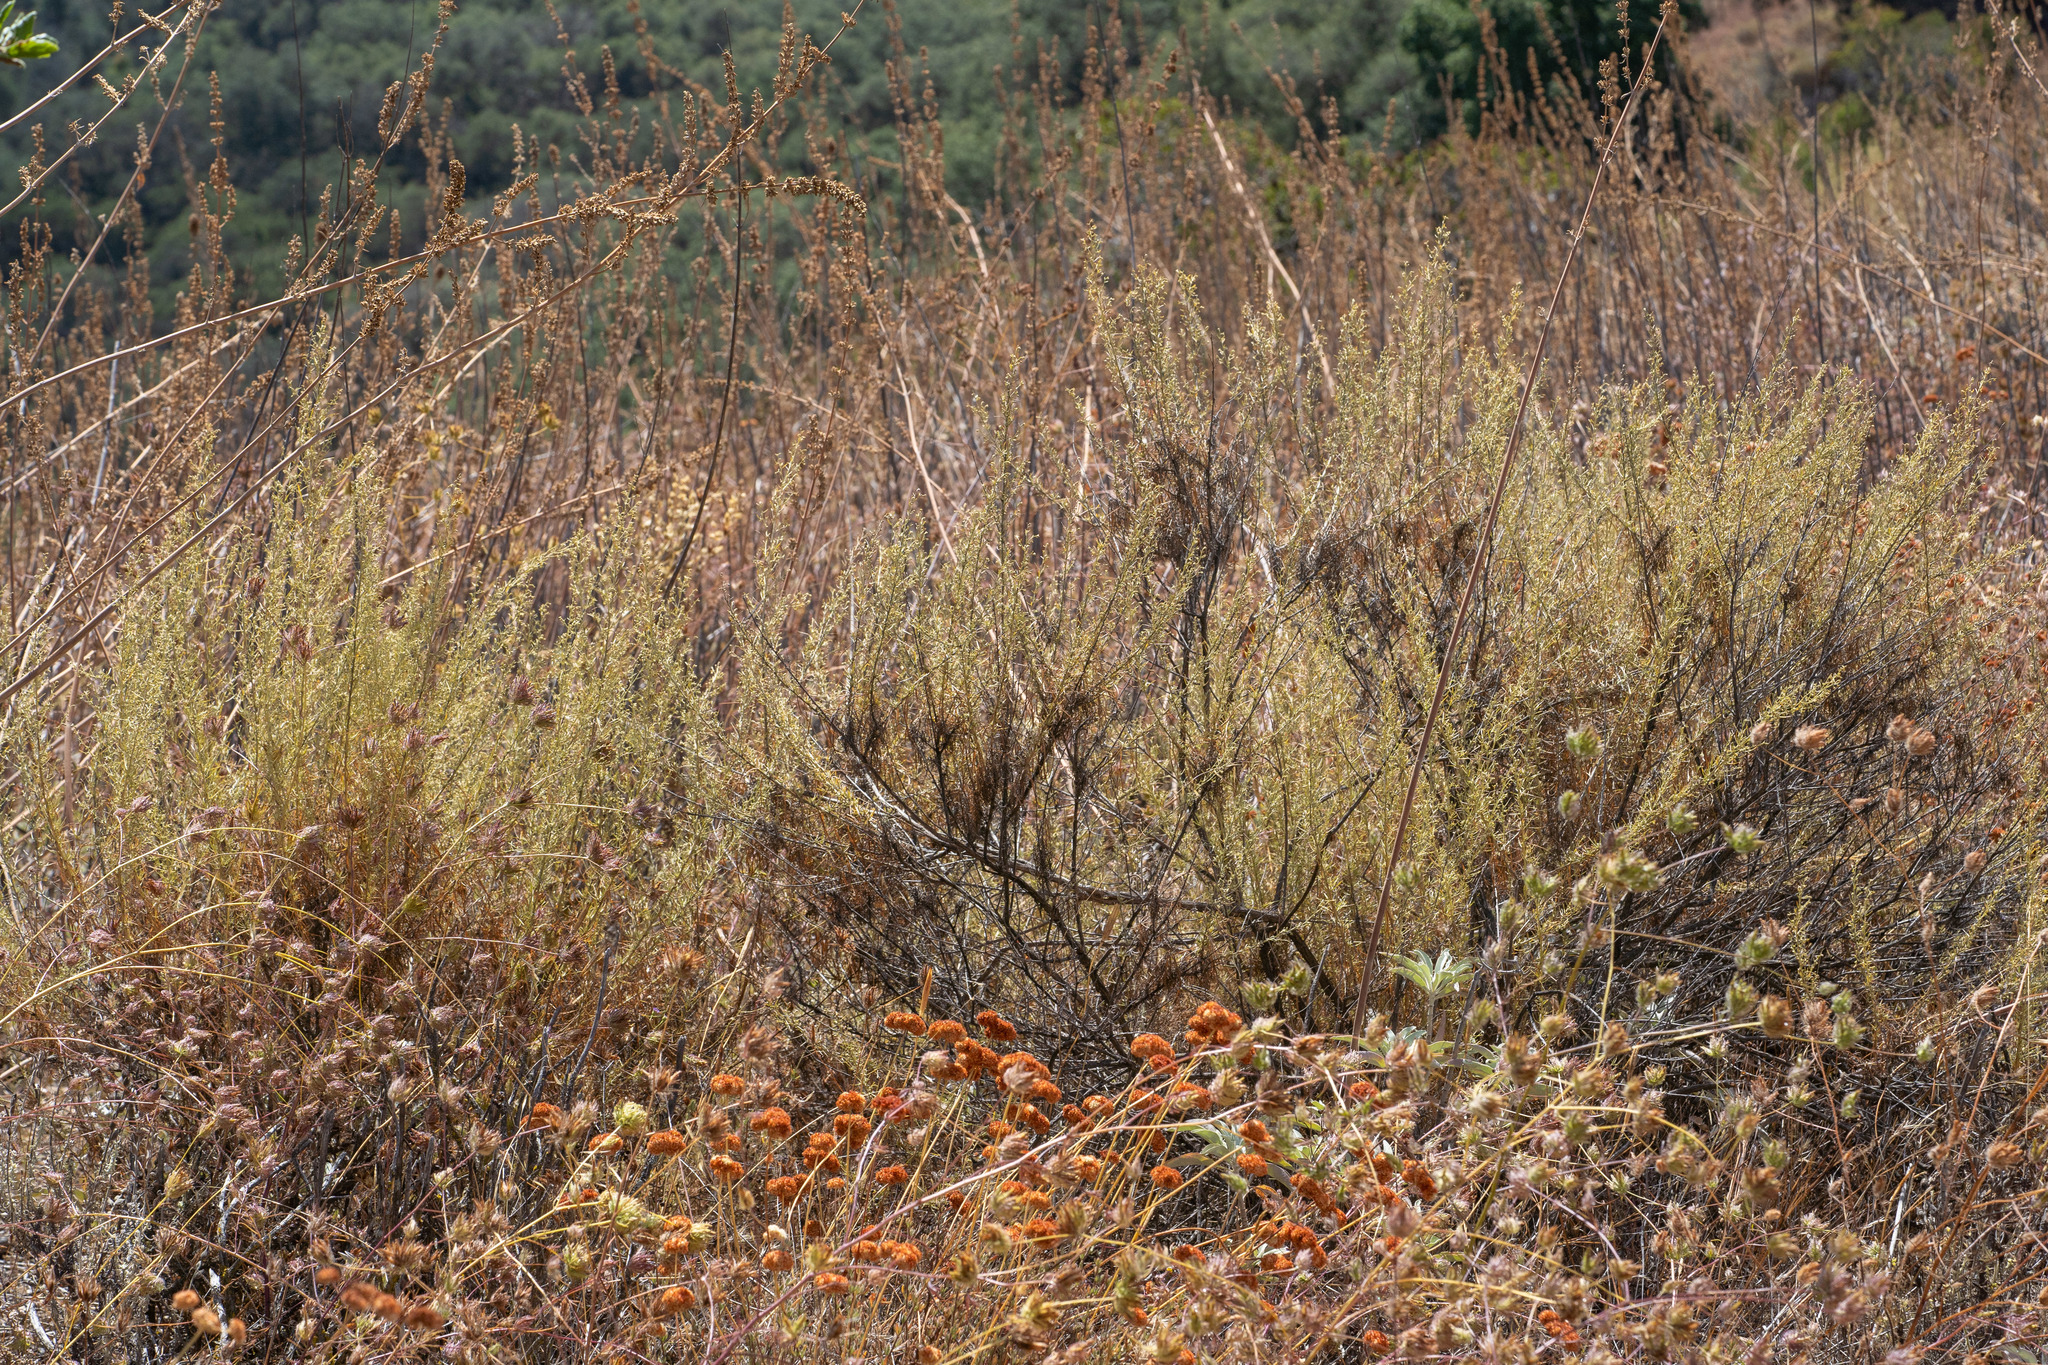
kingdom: Plantae
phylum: Tracheophyta
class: Magnoliopsida
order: Asterales
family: Asteraceae
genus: Artemisia
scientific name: Artemisia californica
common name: California sagebrush
